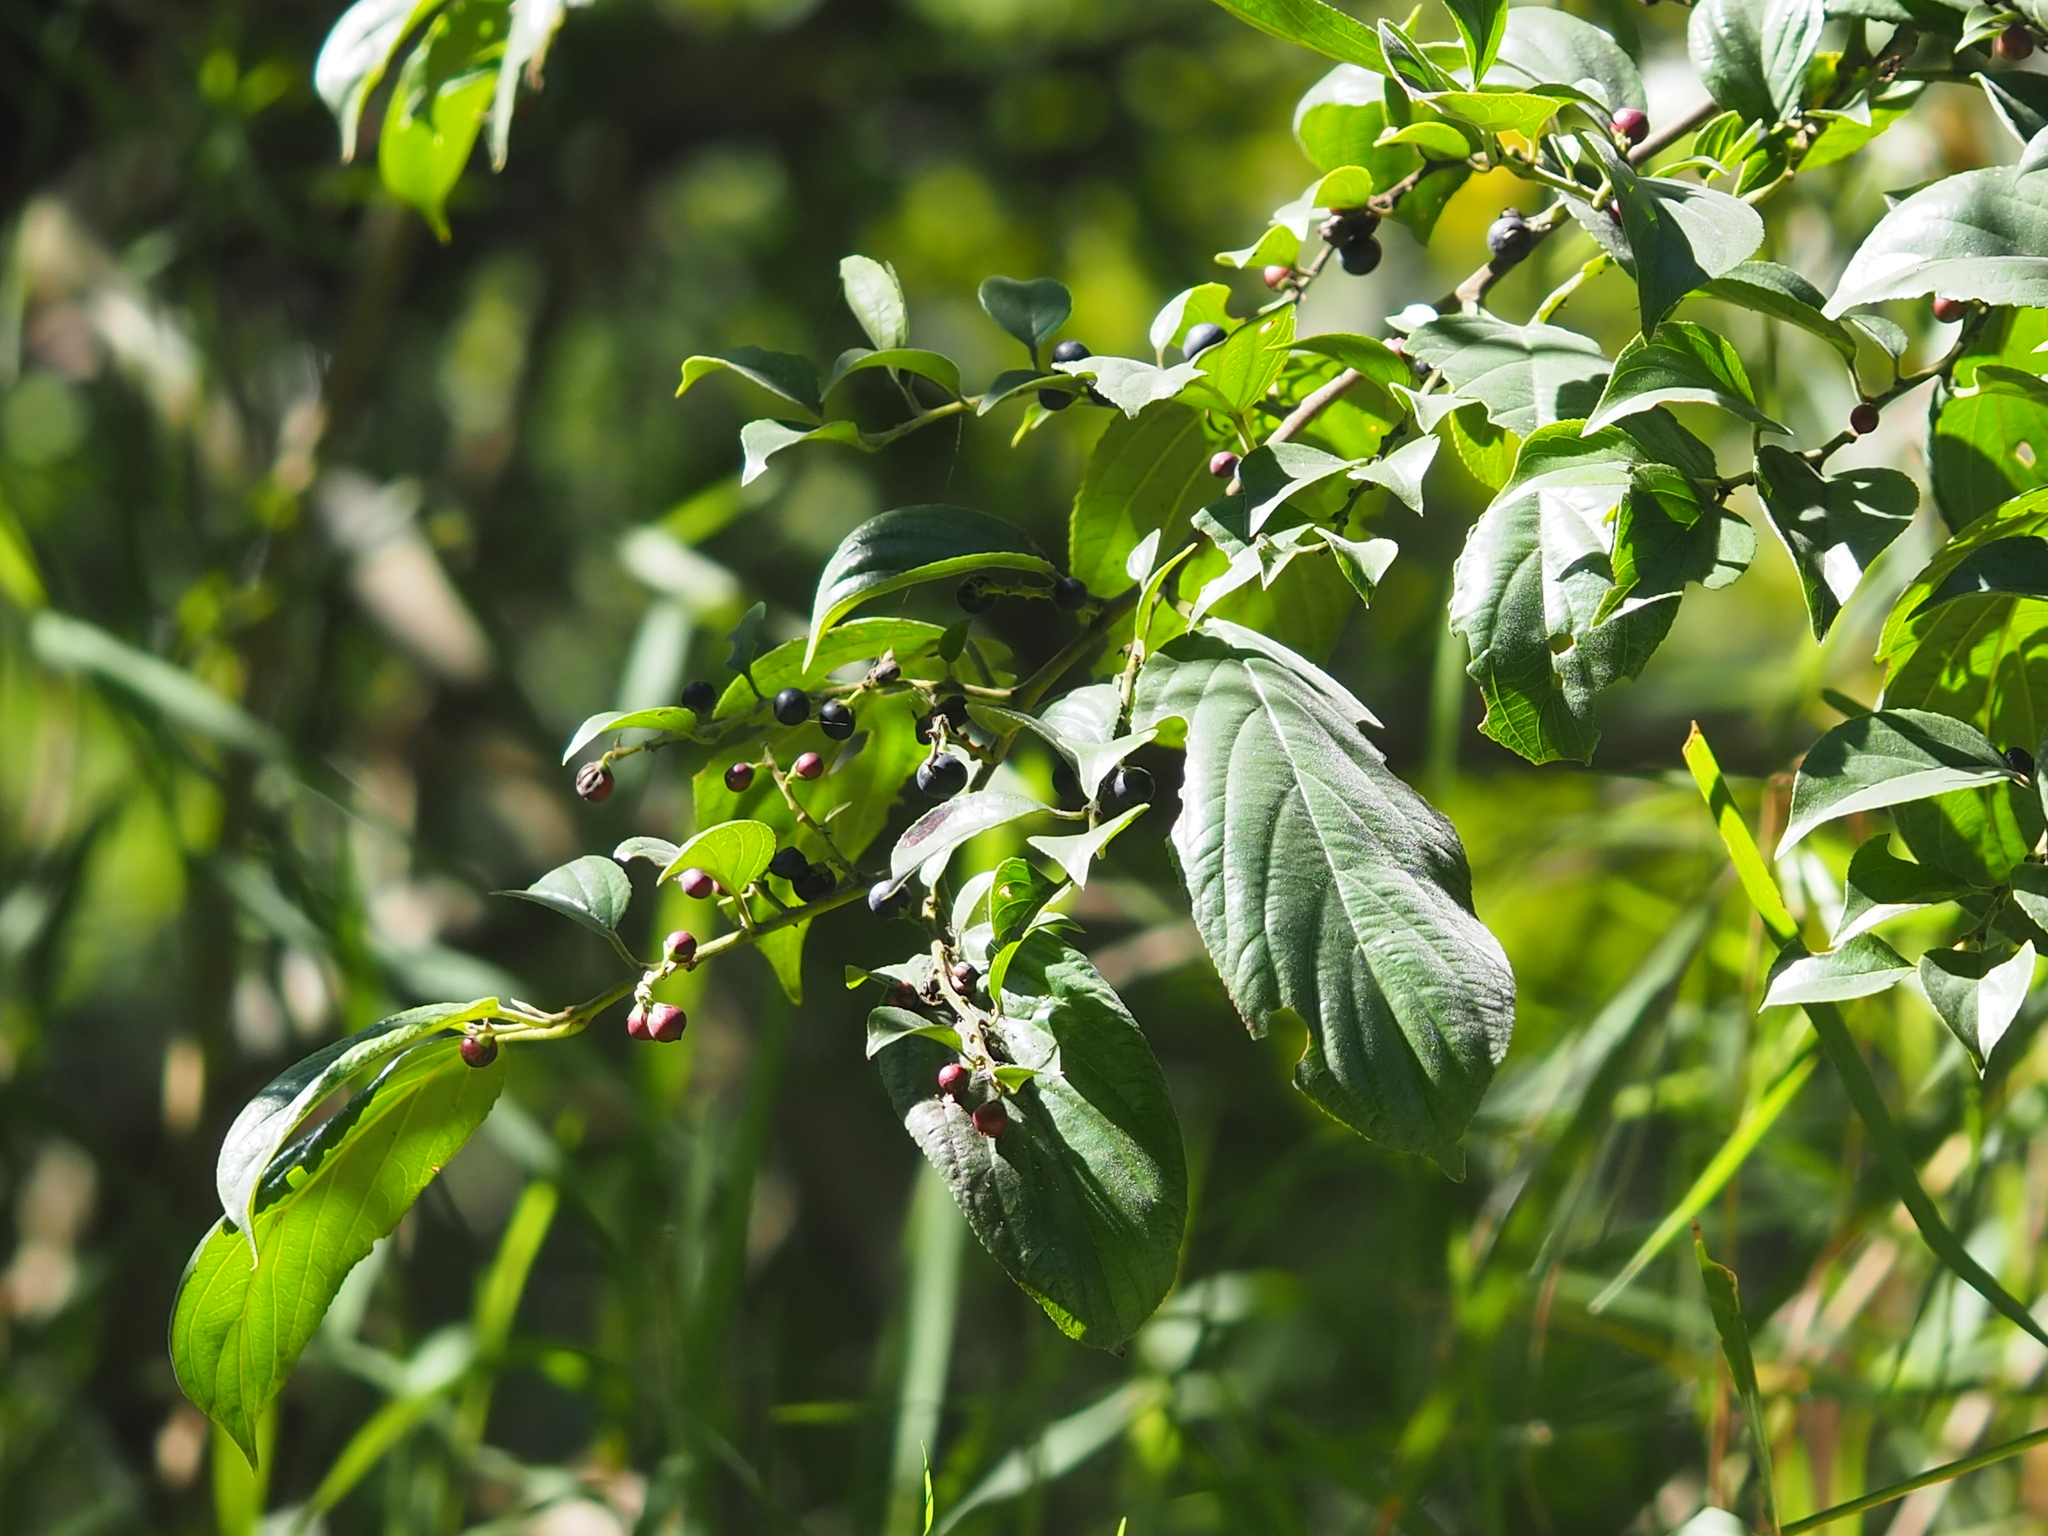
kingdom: Plantae
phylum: Tracheophyta
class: Magnoliopsida
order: Rosales
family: Rhamnaceae
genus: Rhamnus
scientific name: Rhamnus formosana
